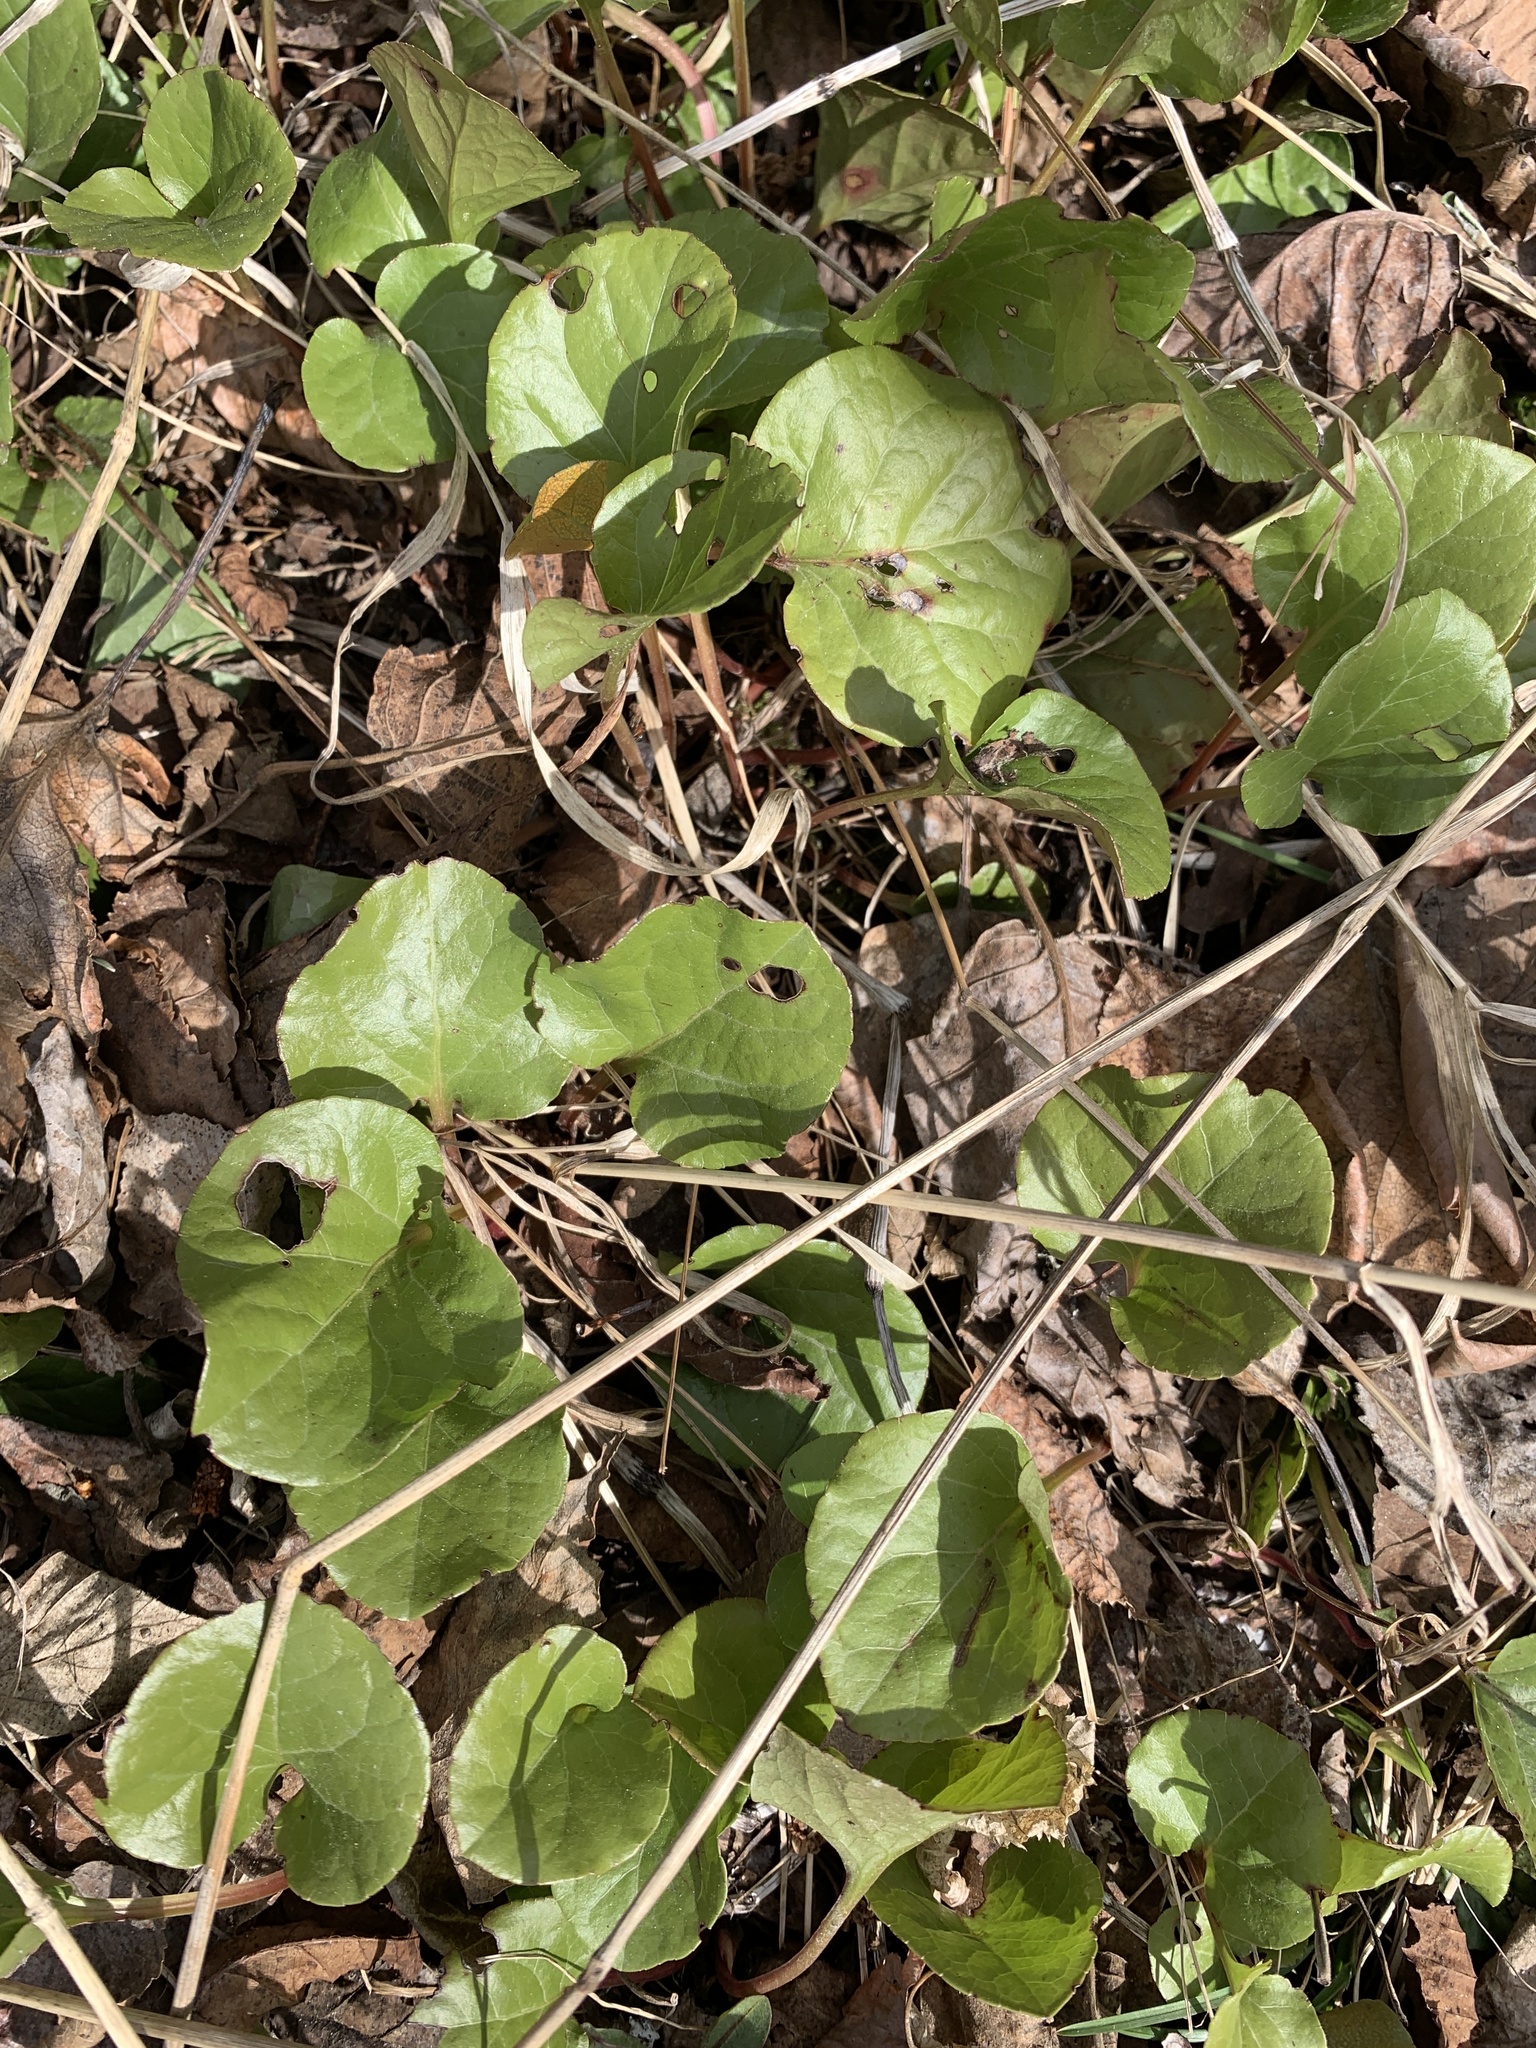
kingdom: Plantae
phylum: Tracheophyta
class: Magnoliopsida
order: Ericales
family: Ericaceae
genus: Pyrola
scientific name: Pyrola asarifolia
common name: Bog wintergreen
